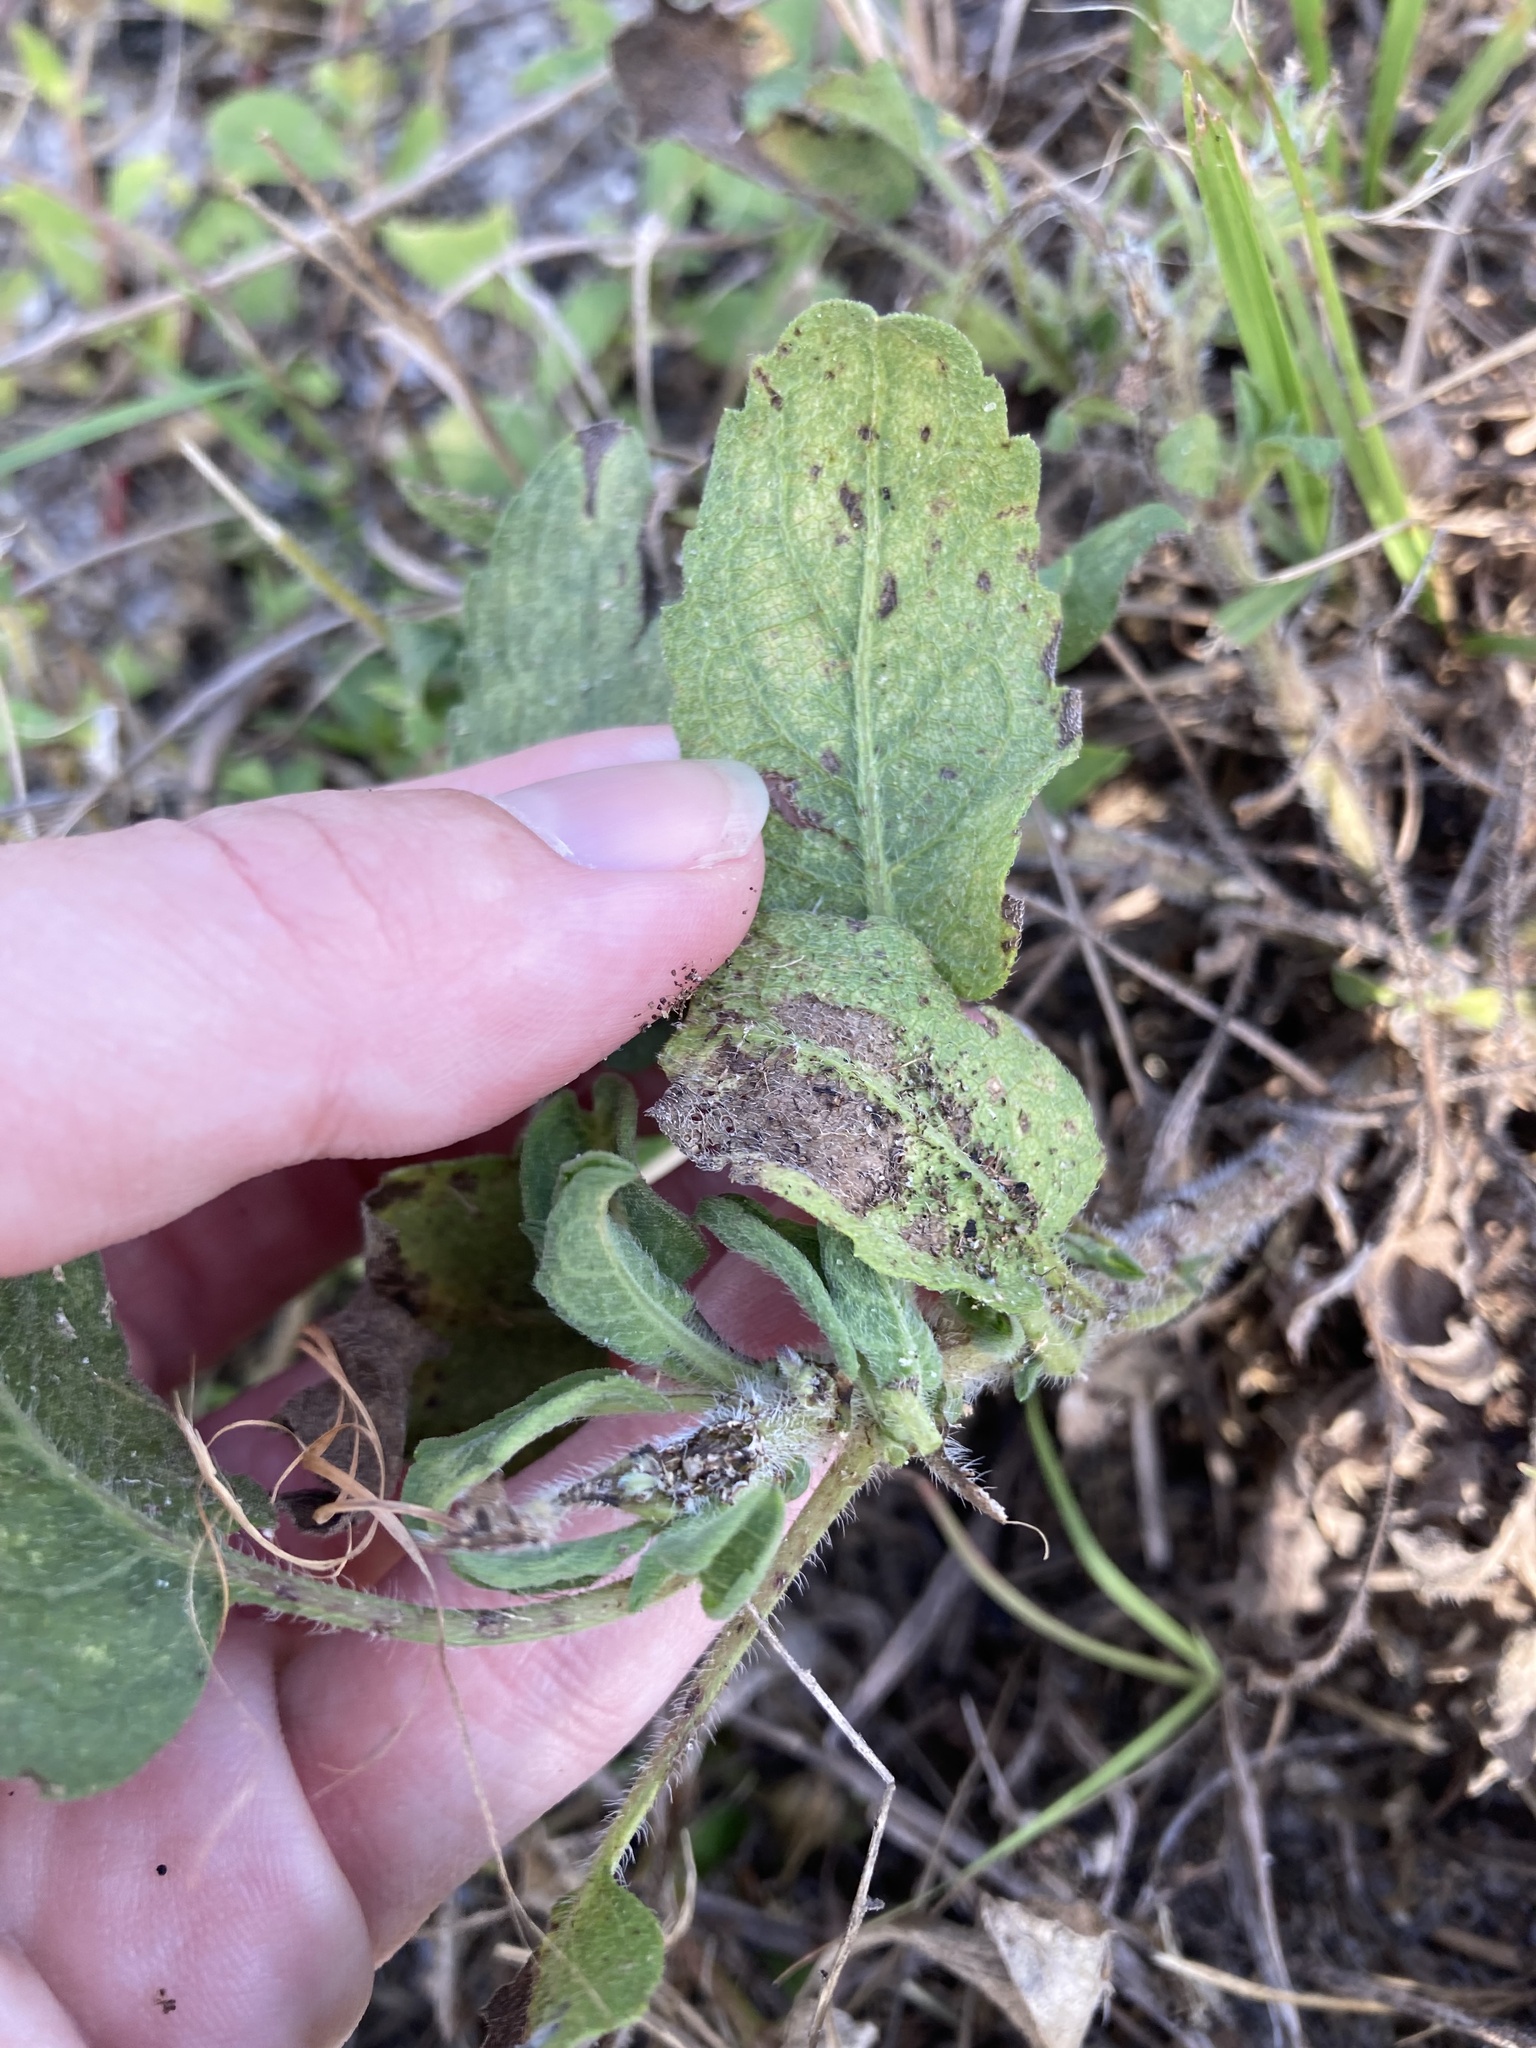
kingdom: Plantae
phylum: Tracheophyta
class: Magnoliopsida
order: Asterales
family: Asteraceae
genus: Heterotheca
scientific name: Heterotheca subaxillaris
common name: Camphorweed
